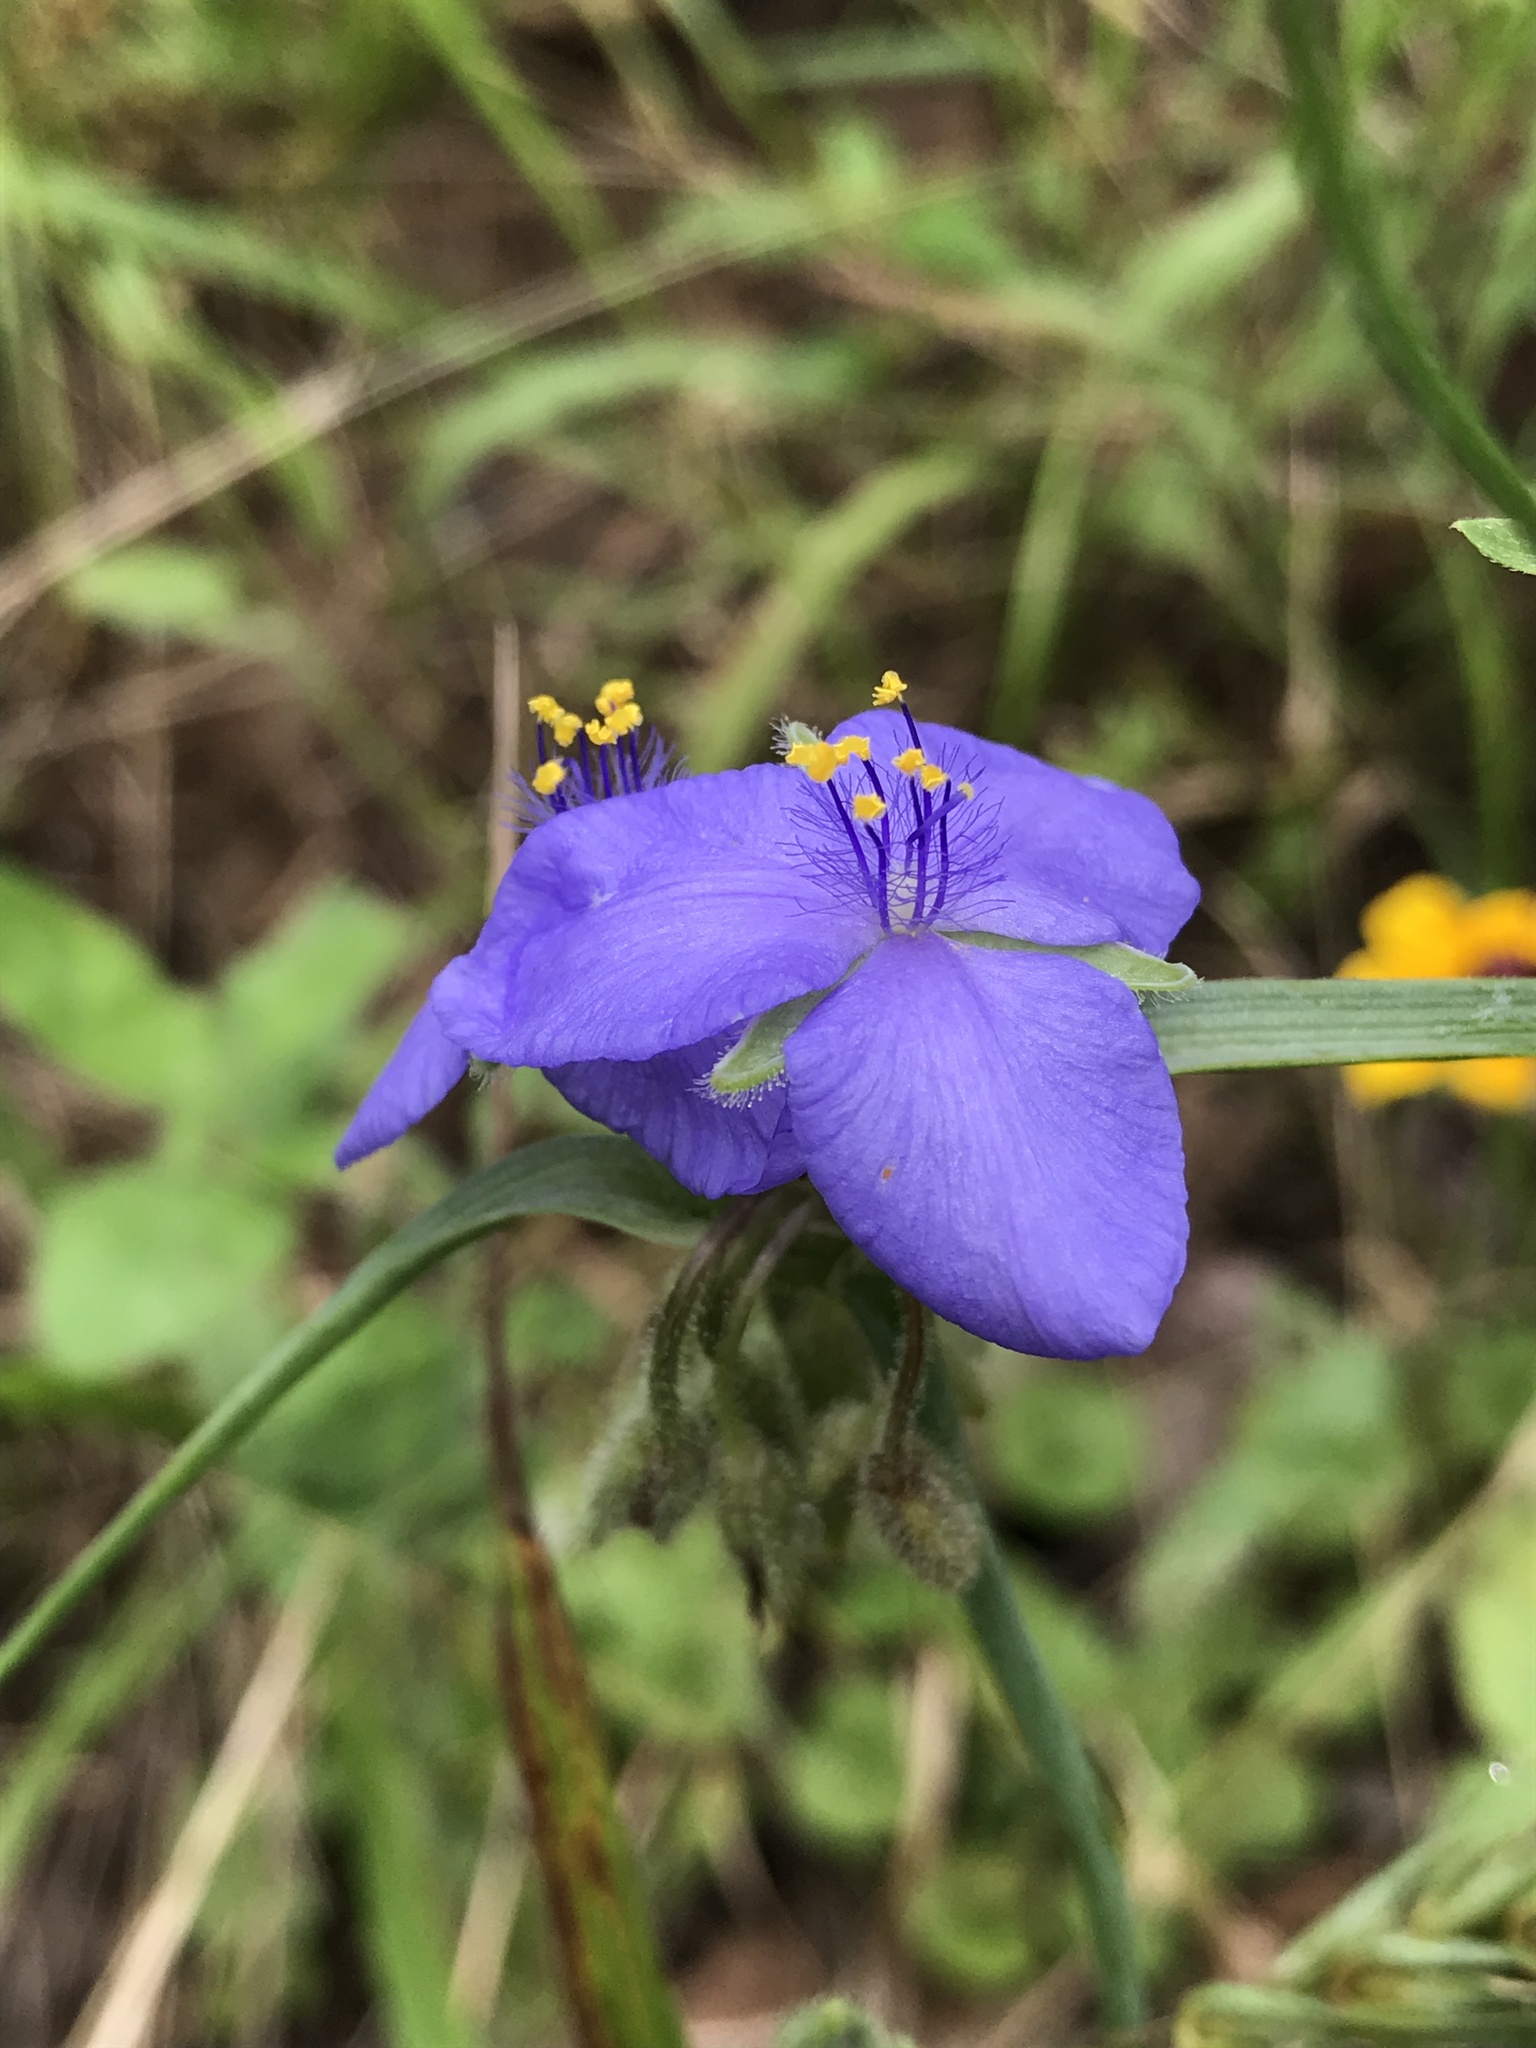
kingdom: Plantae
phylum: Tracheophyta
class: Liliopsida
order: Commelinales
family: Commelinaceae
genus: Tradescantia
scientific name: Tradescantia hirsutiflora
